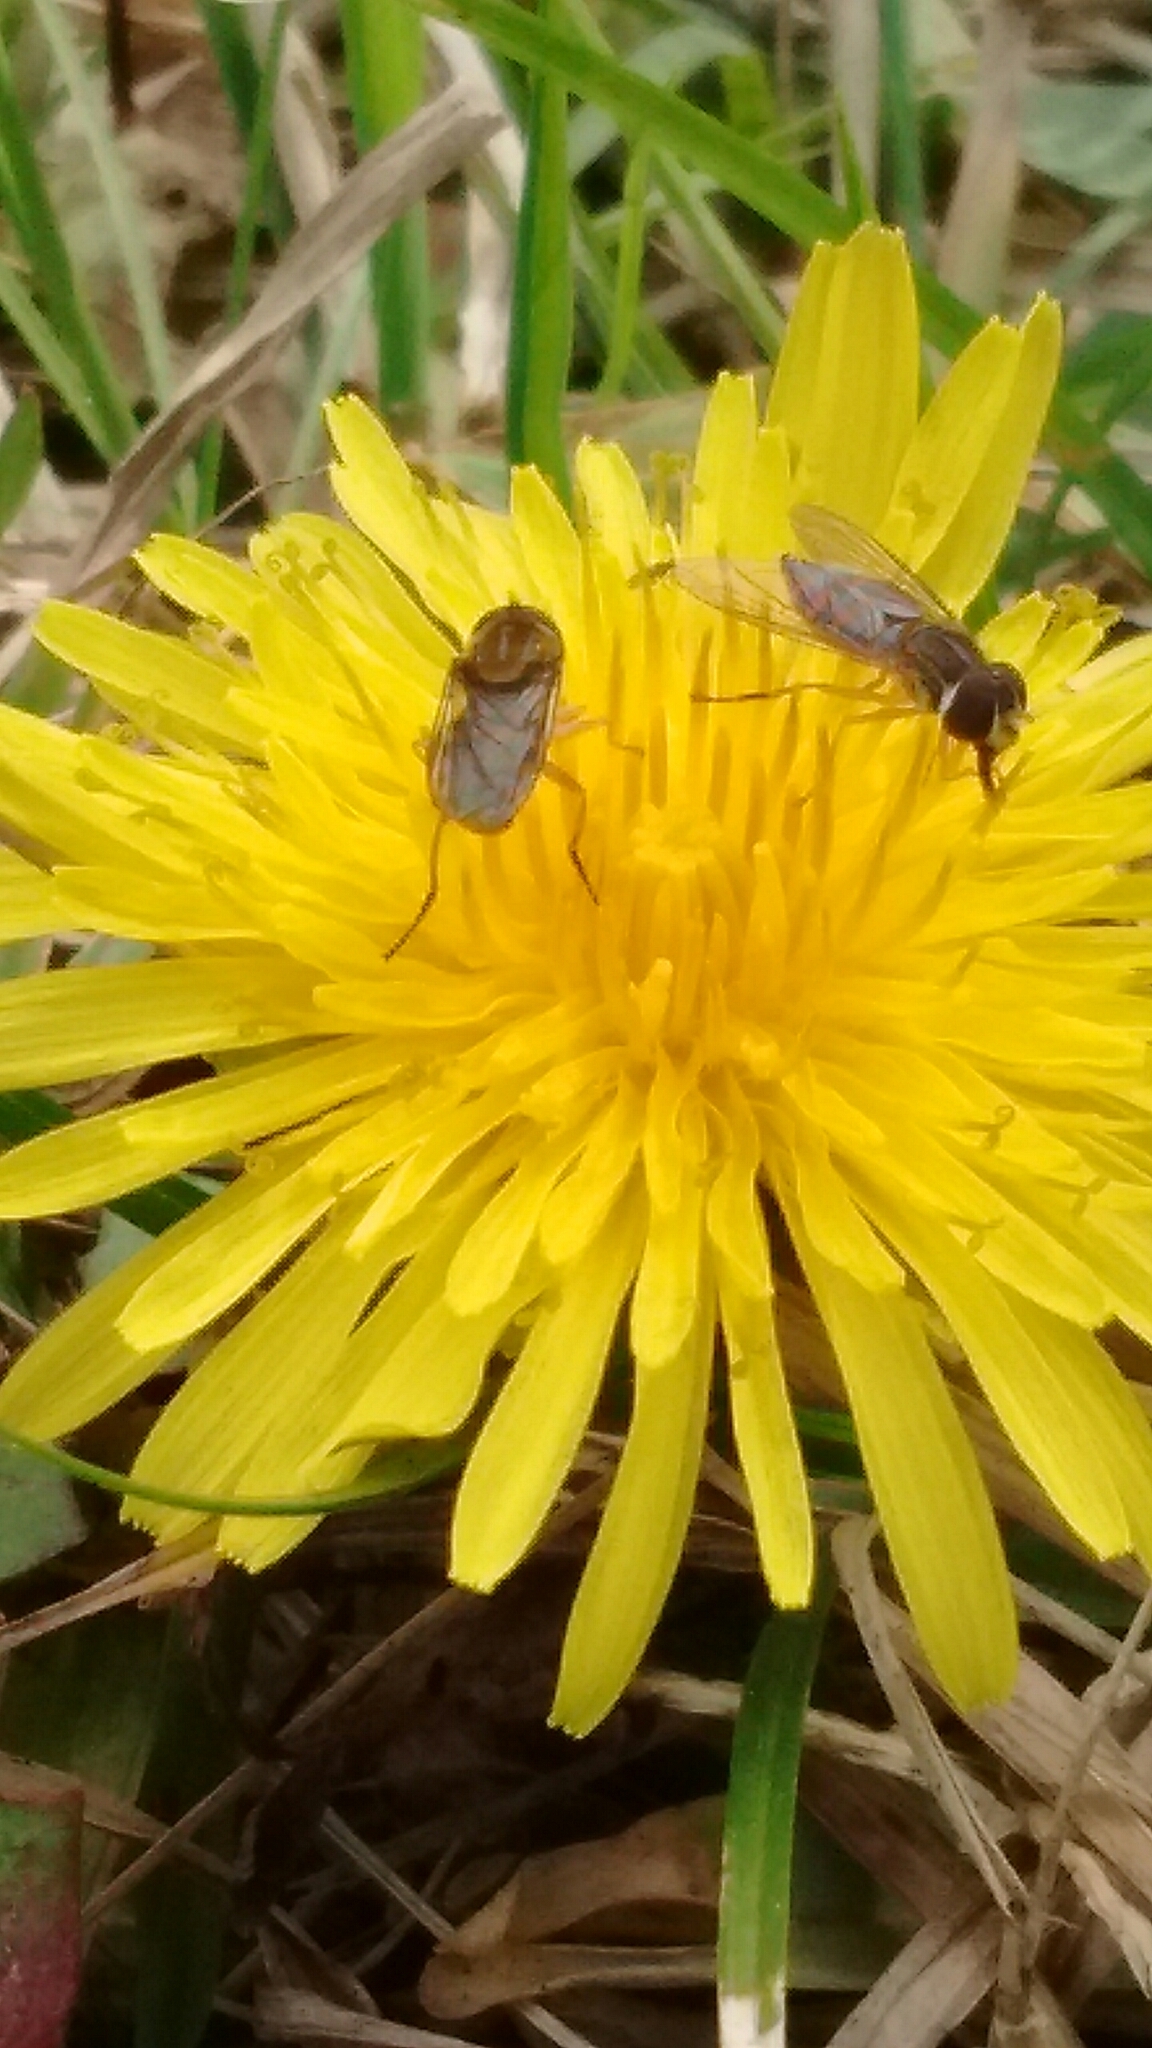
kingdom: Animalia
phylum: Arthropoda
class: Insecta
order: Diptera
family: Syrphidae
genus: Toxomerus
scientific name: Toxomerus
